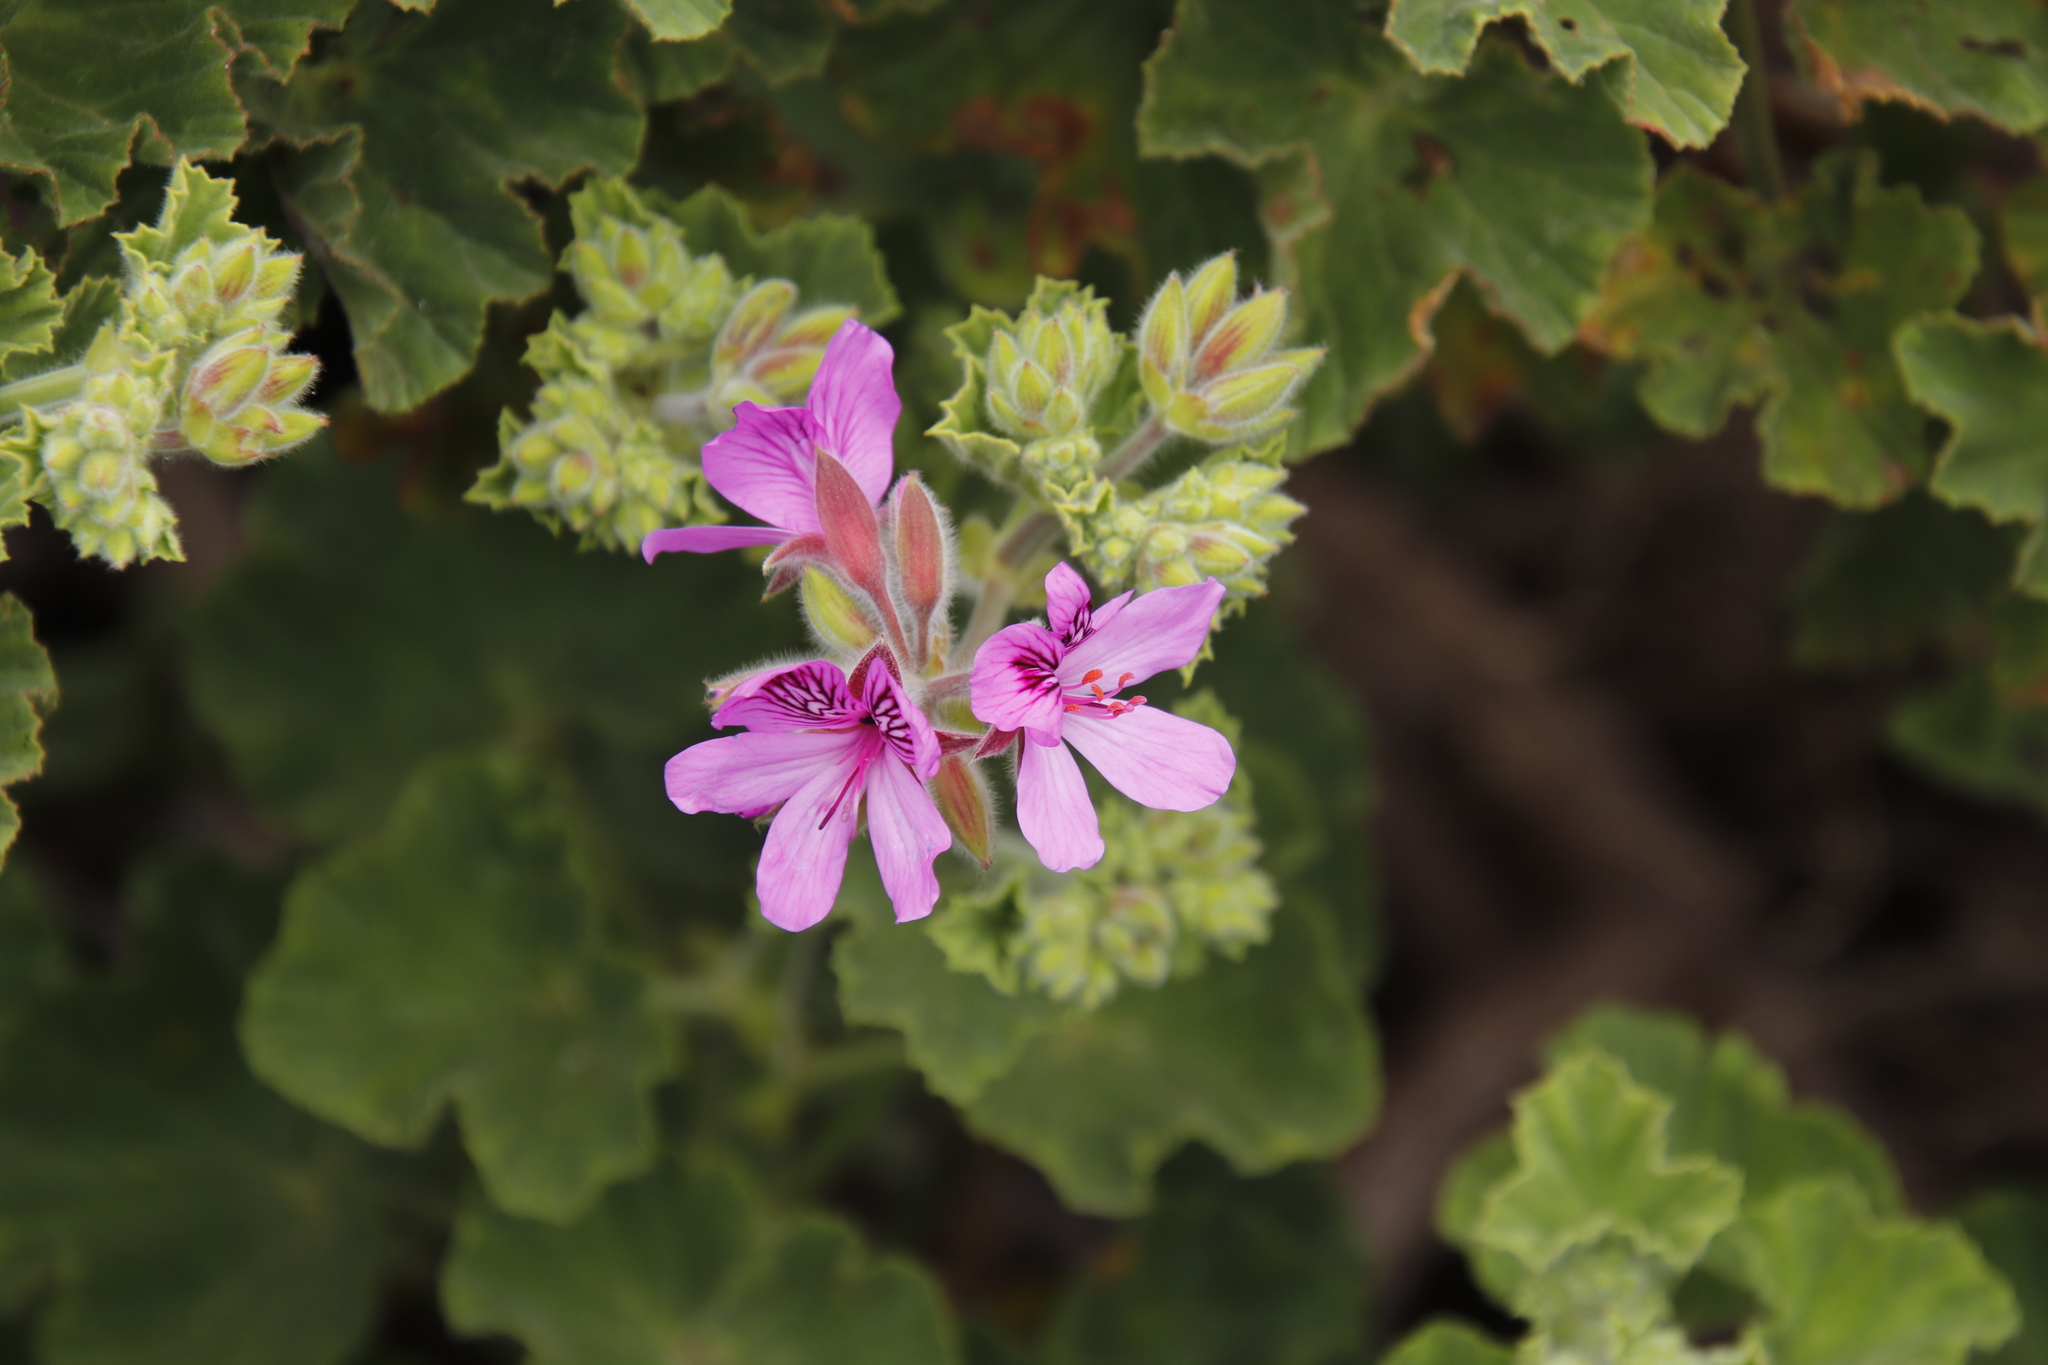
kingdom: Plantae
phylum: Tracheophyta
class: Magnoliopsida
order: Geraniales
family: Geraniaceae
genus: Pelargonium
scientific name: Pelargonium cucullatum
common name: Tree pelargonium
